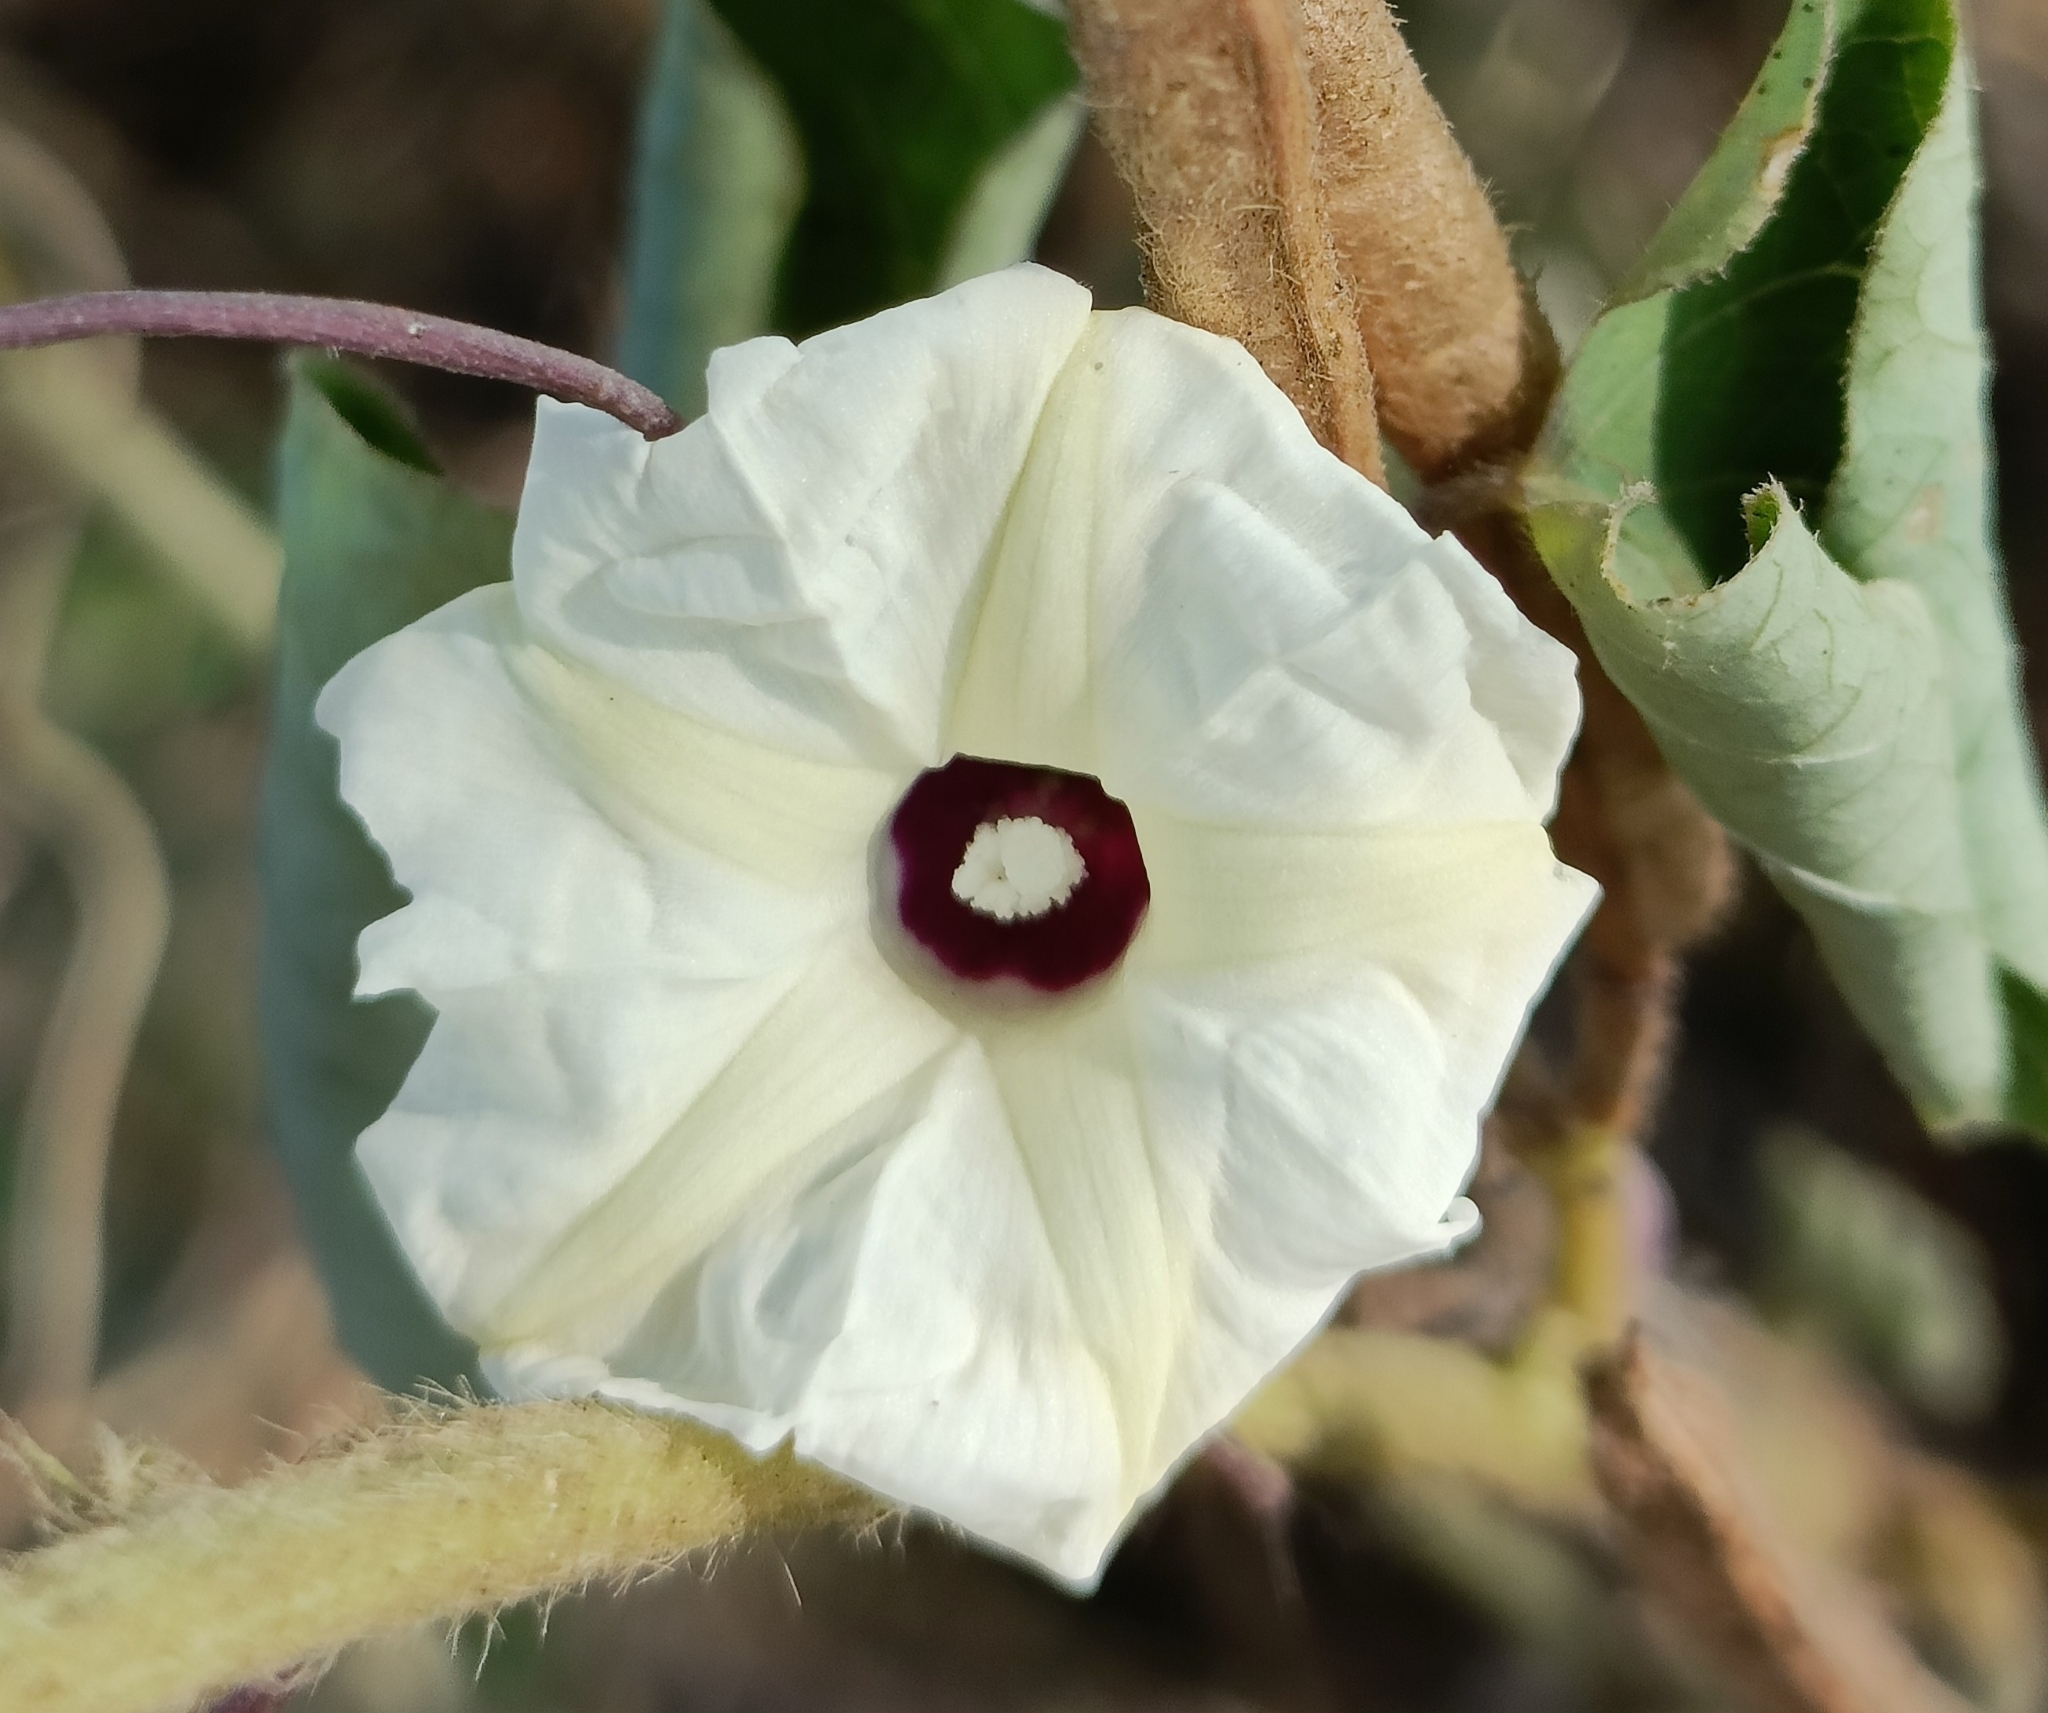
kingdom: Plantae
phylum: Tracheophyta
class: Magnoliopsida
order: Solanales
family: Convolvulaceae
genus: Ipomoea
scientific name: Ipomoea obscura
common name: Obscure morning-glory
